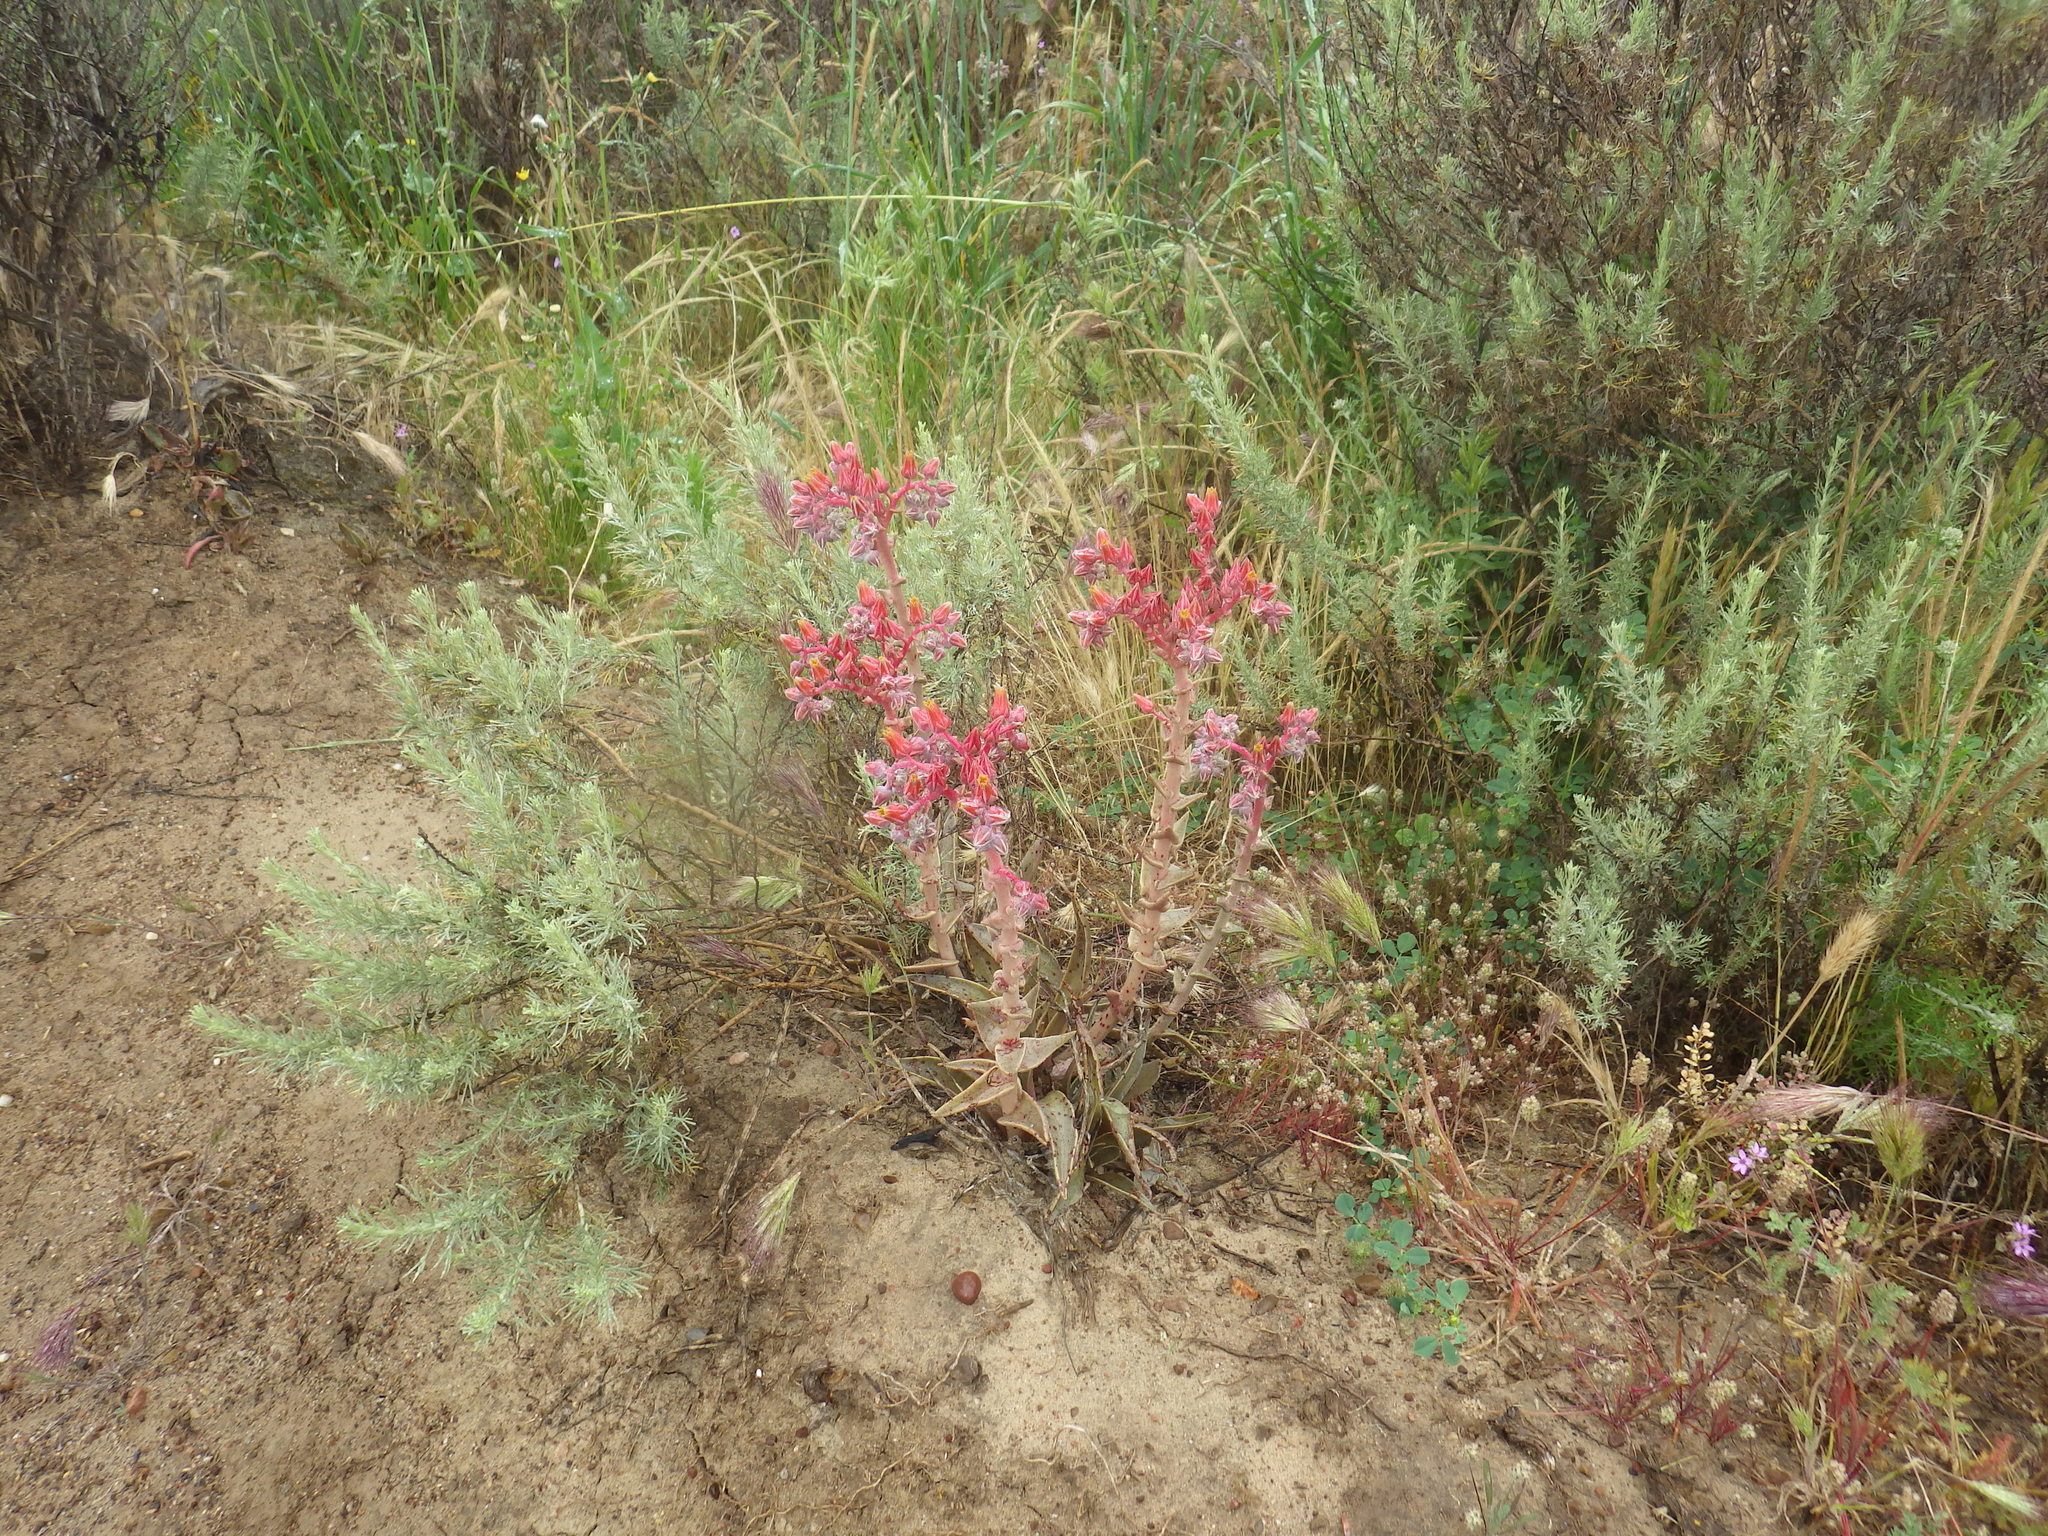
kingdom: Plantae
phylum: Tracheophyta
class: Magnoliopsida
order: Saxifragales
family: Crassulaceae
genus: Dudleya
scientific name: Dudleya lanceolata
